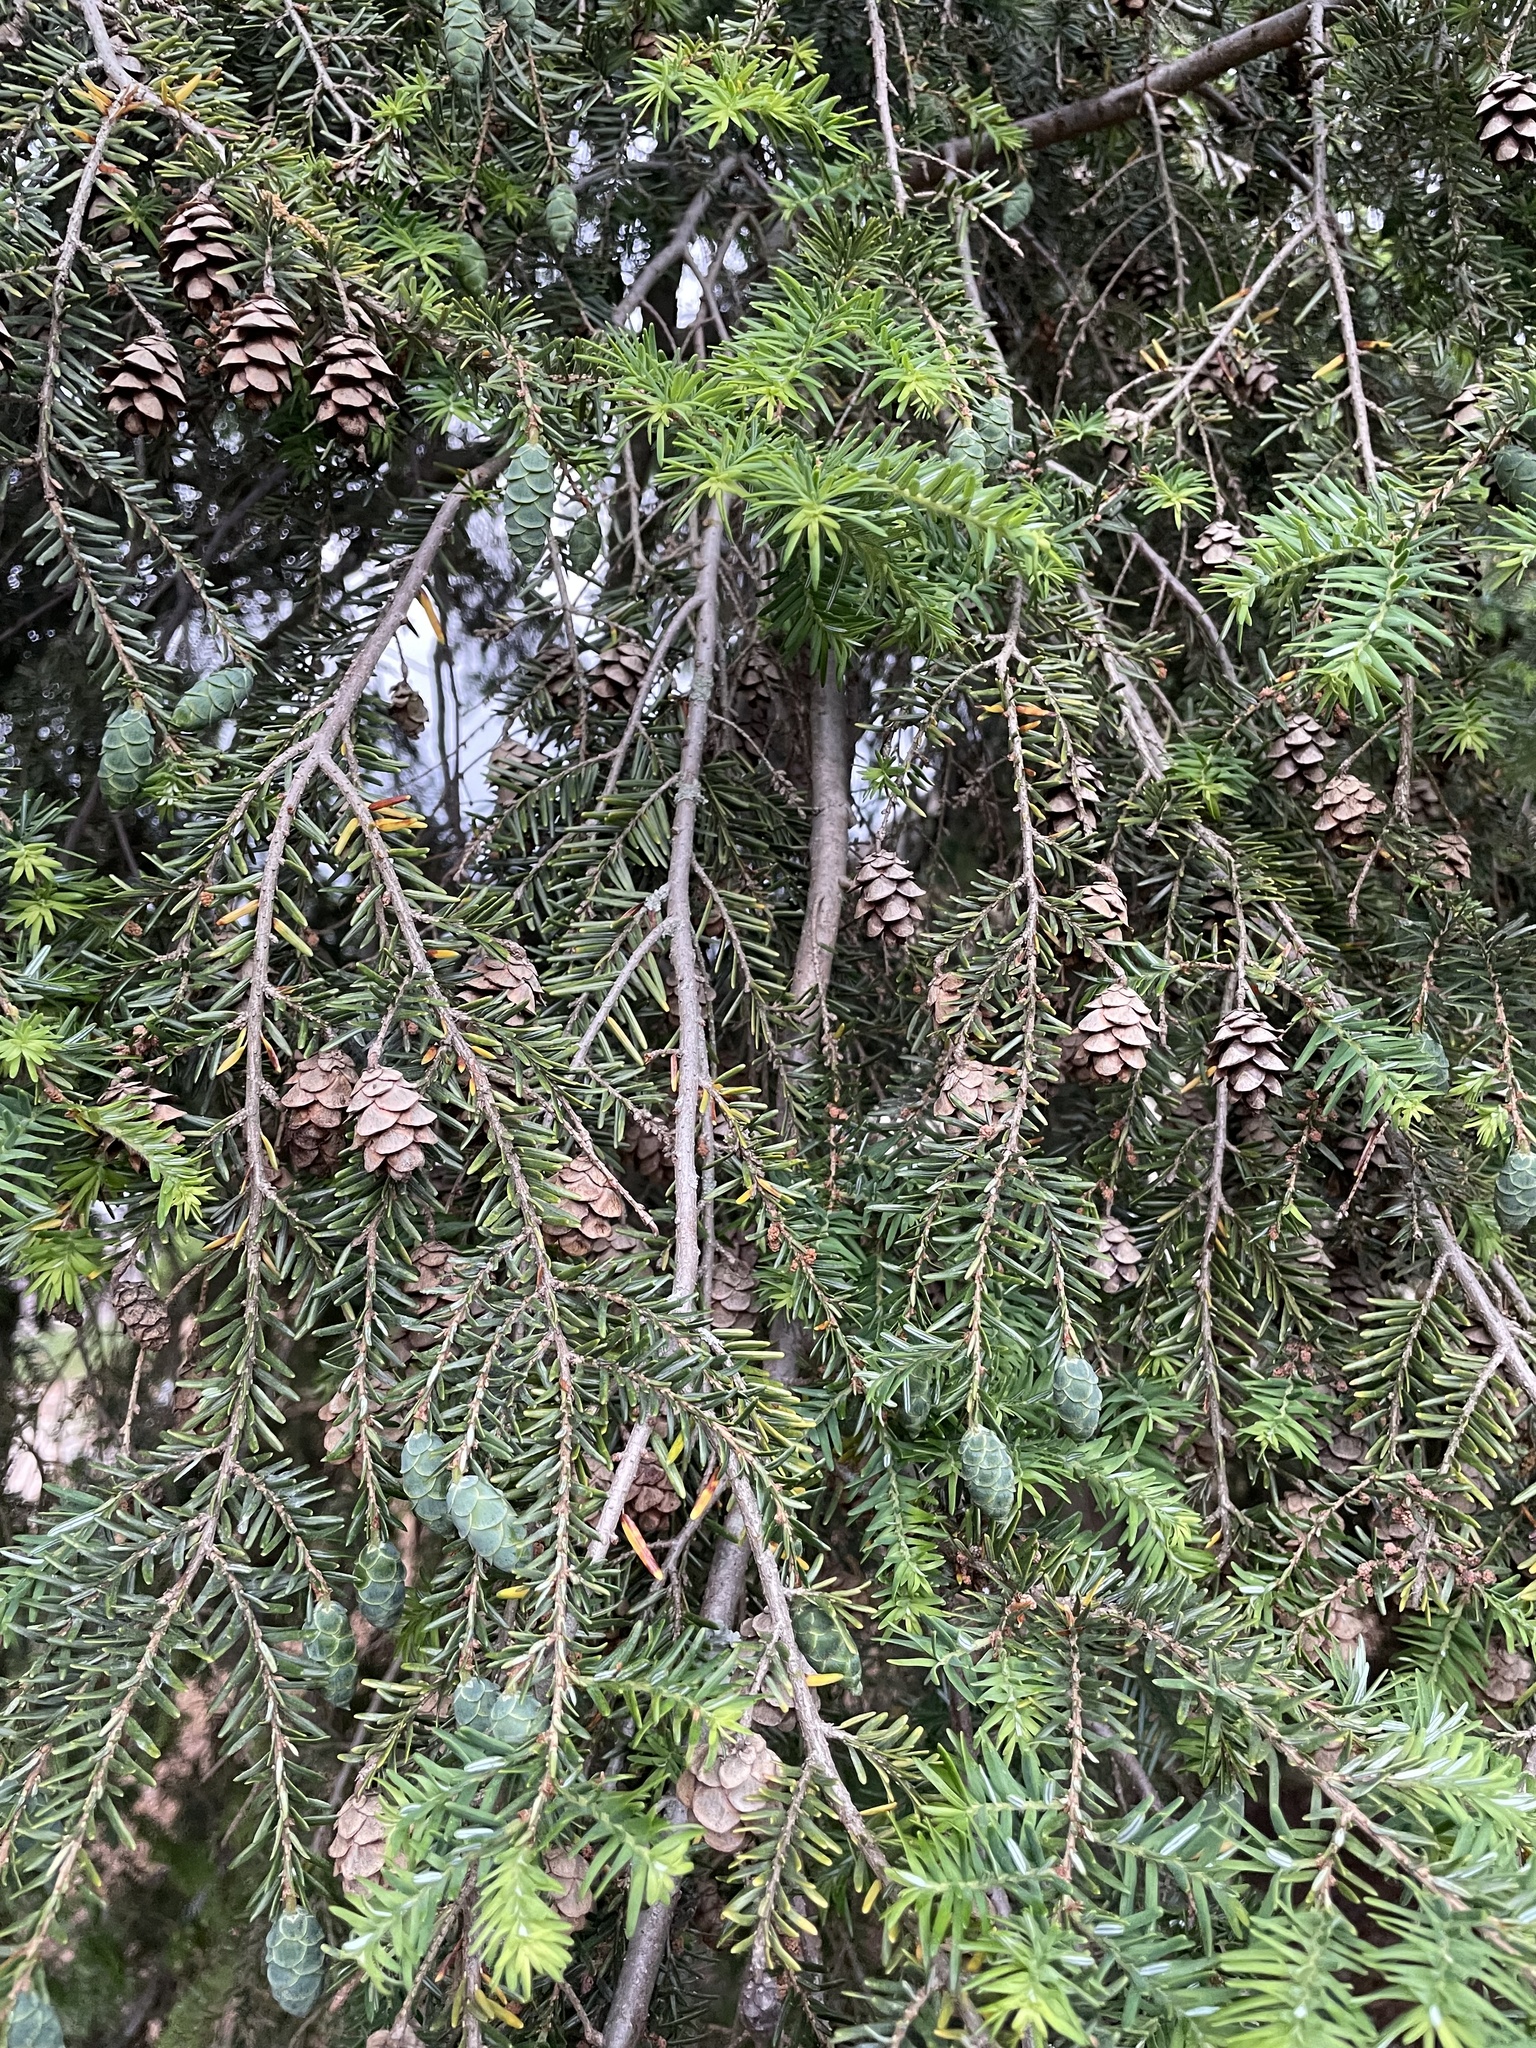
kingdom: Plantae
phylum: Tracheophyta
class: Pinopsida
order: Pinales
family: Pinaceae
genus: Tsuga
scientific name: Tsuga canadensis
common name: Eastern hemlock
